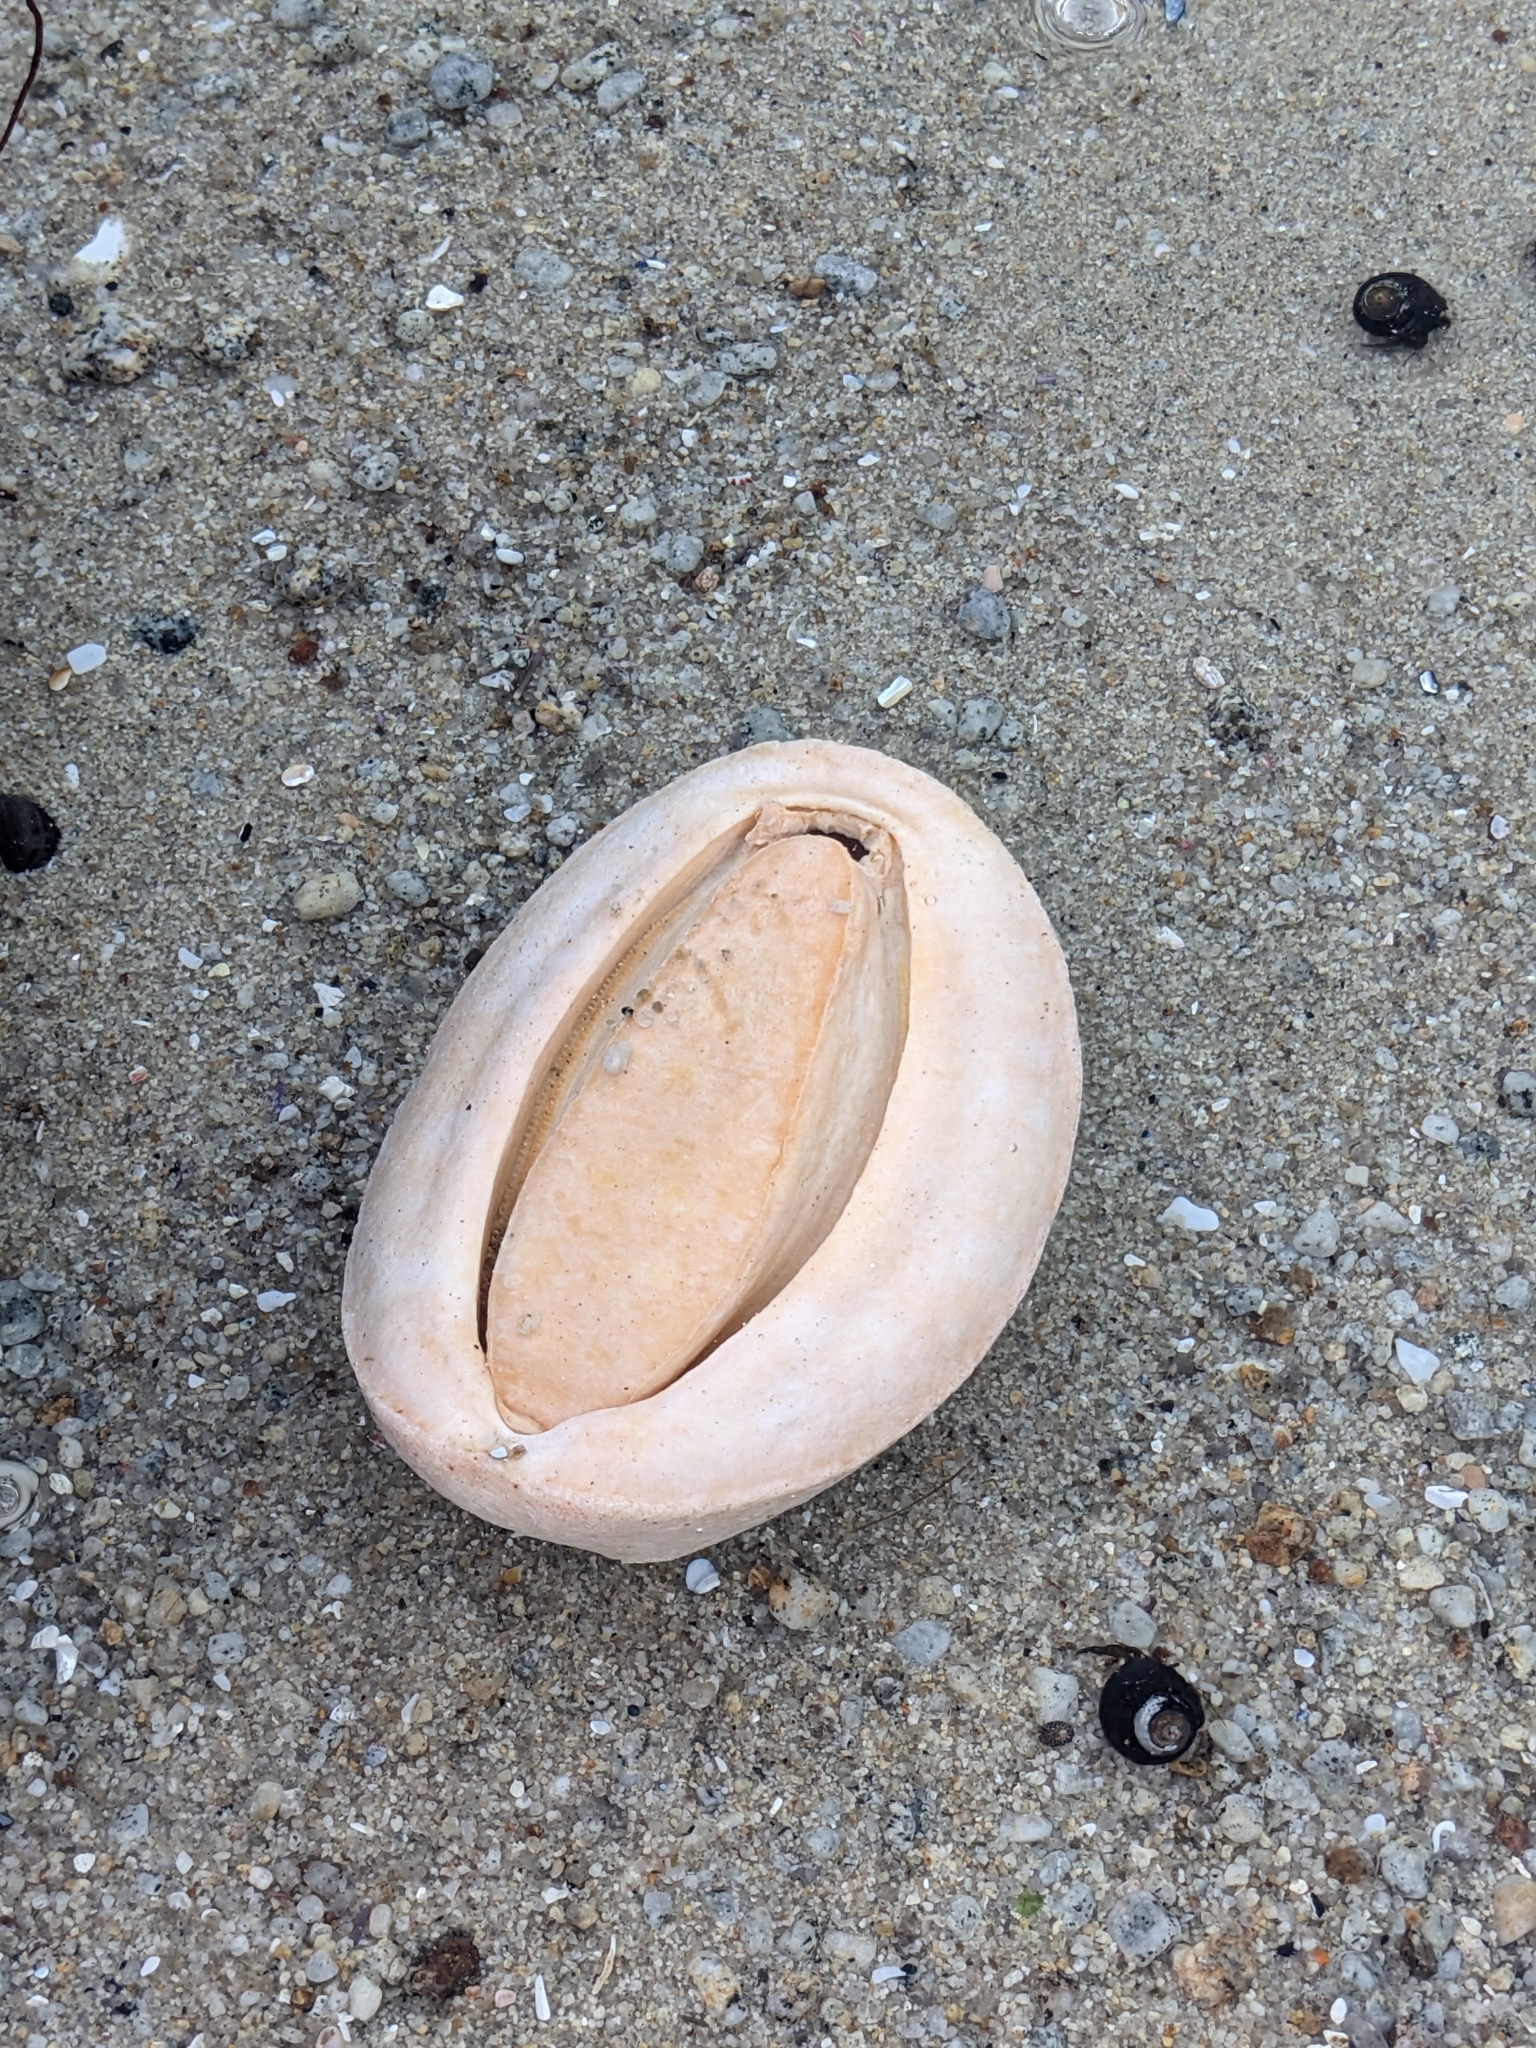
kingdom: Animalia
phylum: Mollusca
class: Polyplacophora
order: Chitonida
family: Acanthochitonidae
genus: Cryptochiton
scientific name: Cryptochiton stelleri
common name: Giant pacific chiton
